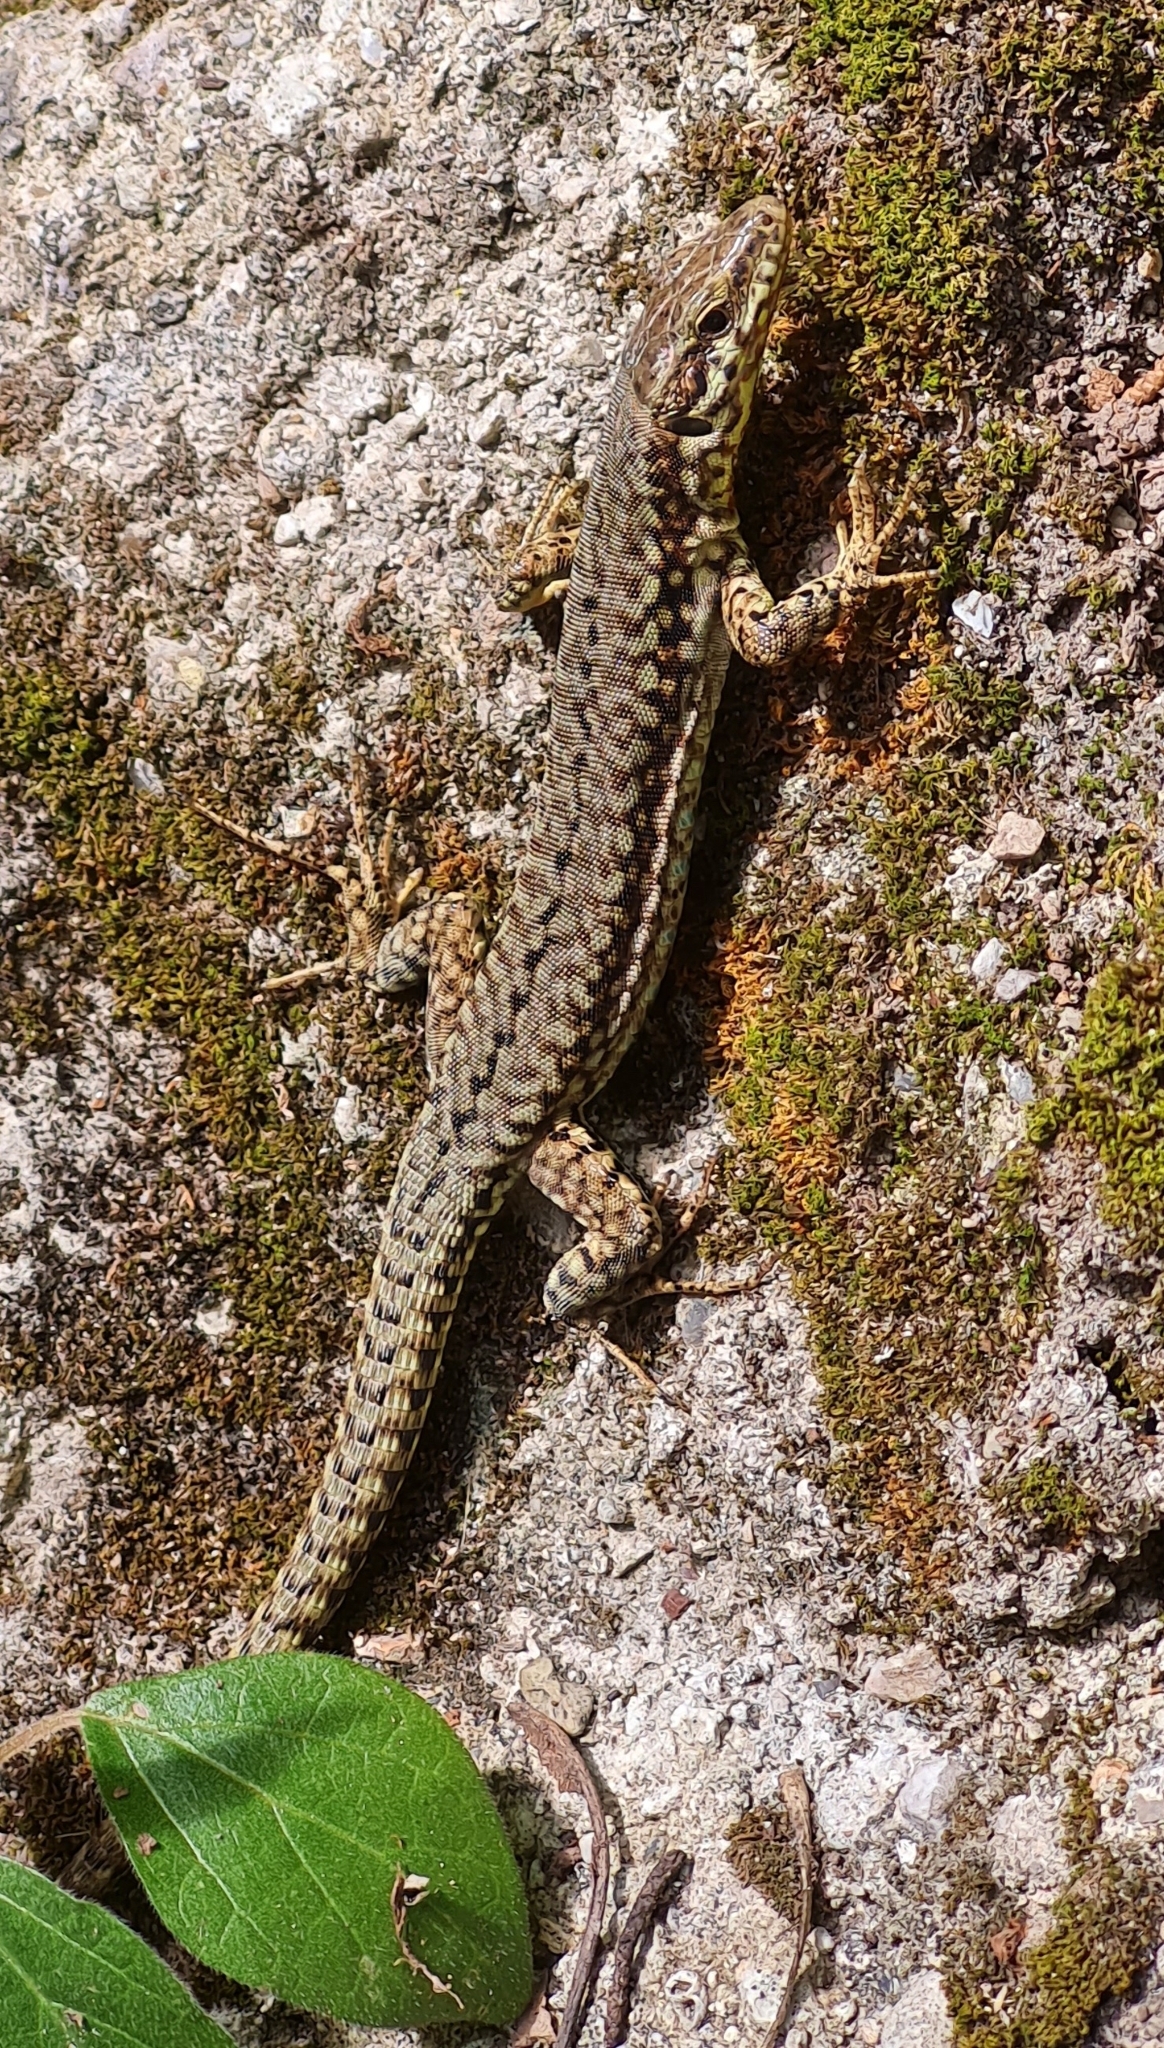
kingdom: Animalia
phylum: Chordata
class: Squamata
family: Lacertidae
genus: Podarcis
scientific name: Podarcis muralis
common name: Common wall lizard
